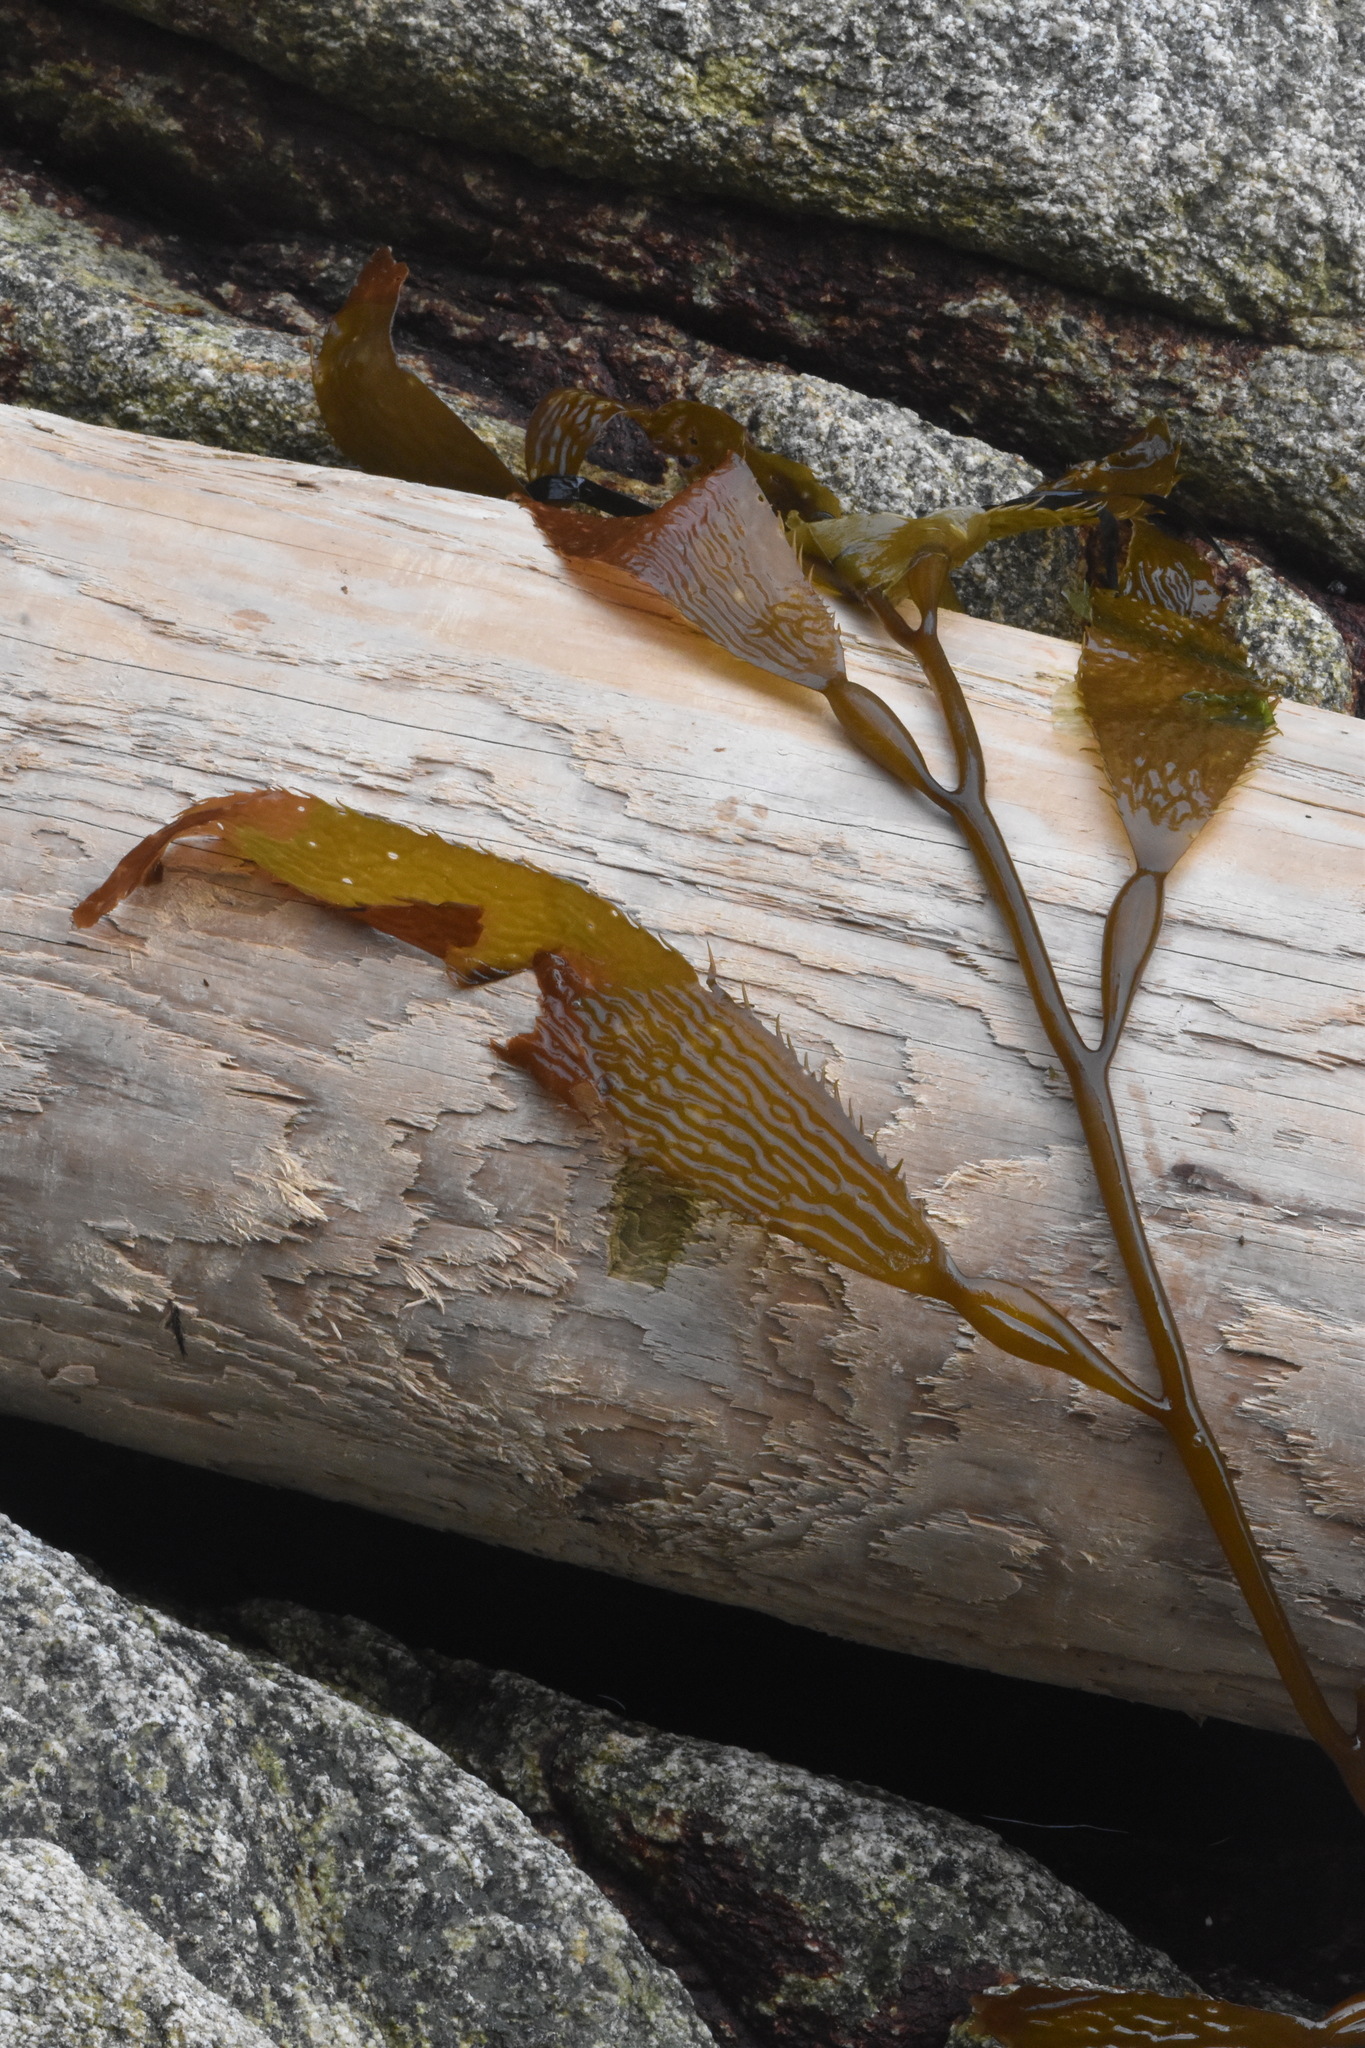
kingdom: Chromista
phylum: Ochrophyta
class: Phaeophyceae
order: Laminariales
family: Laminariaceae
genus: Macrocystis
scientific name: Macrocystis pyrifera
